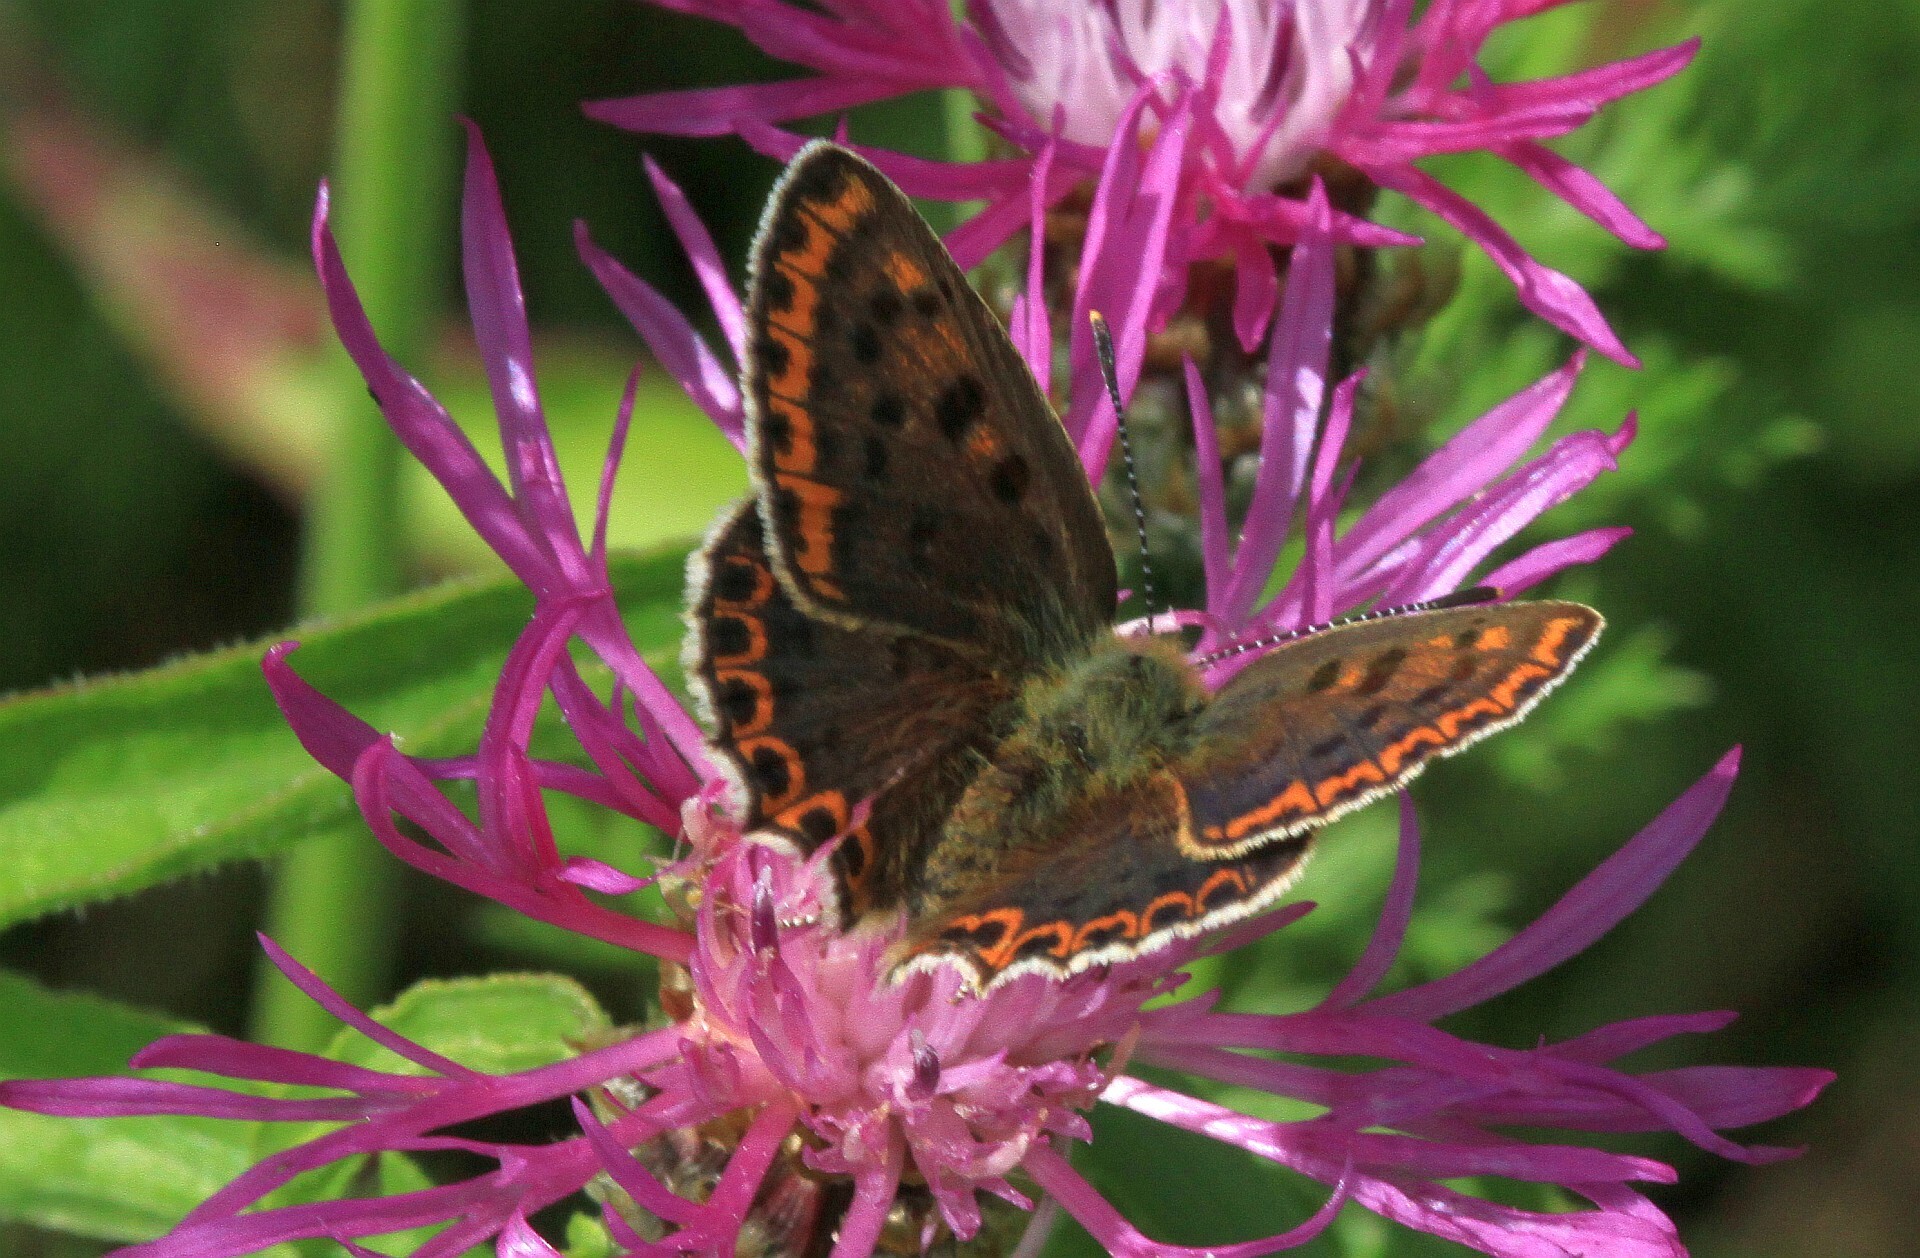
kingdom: Animalia
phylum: Arthropoda
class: Insecta
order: Lepidoptera
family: Lycaenidae
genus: Loweia
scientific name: Loweia tityrus
